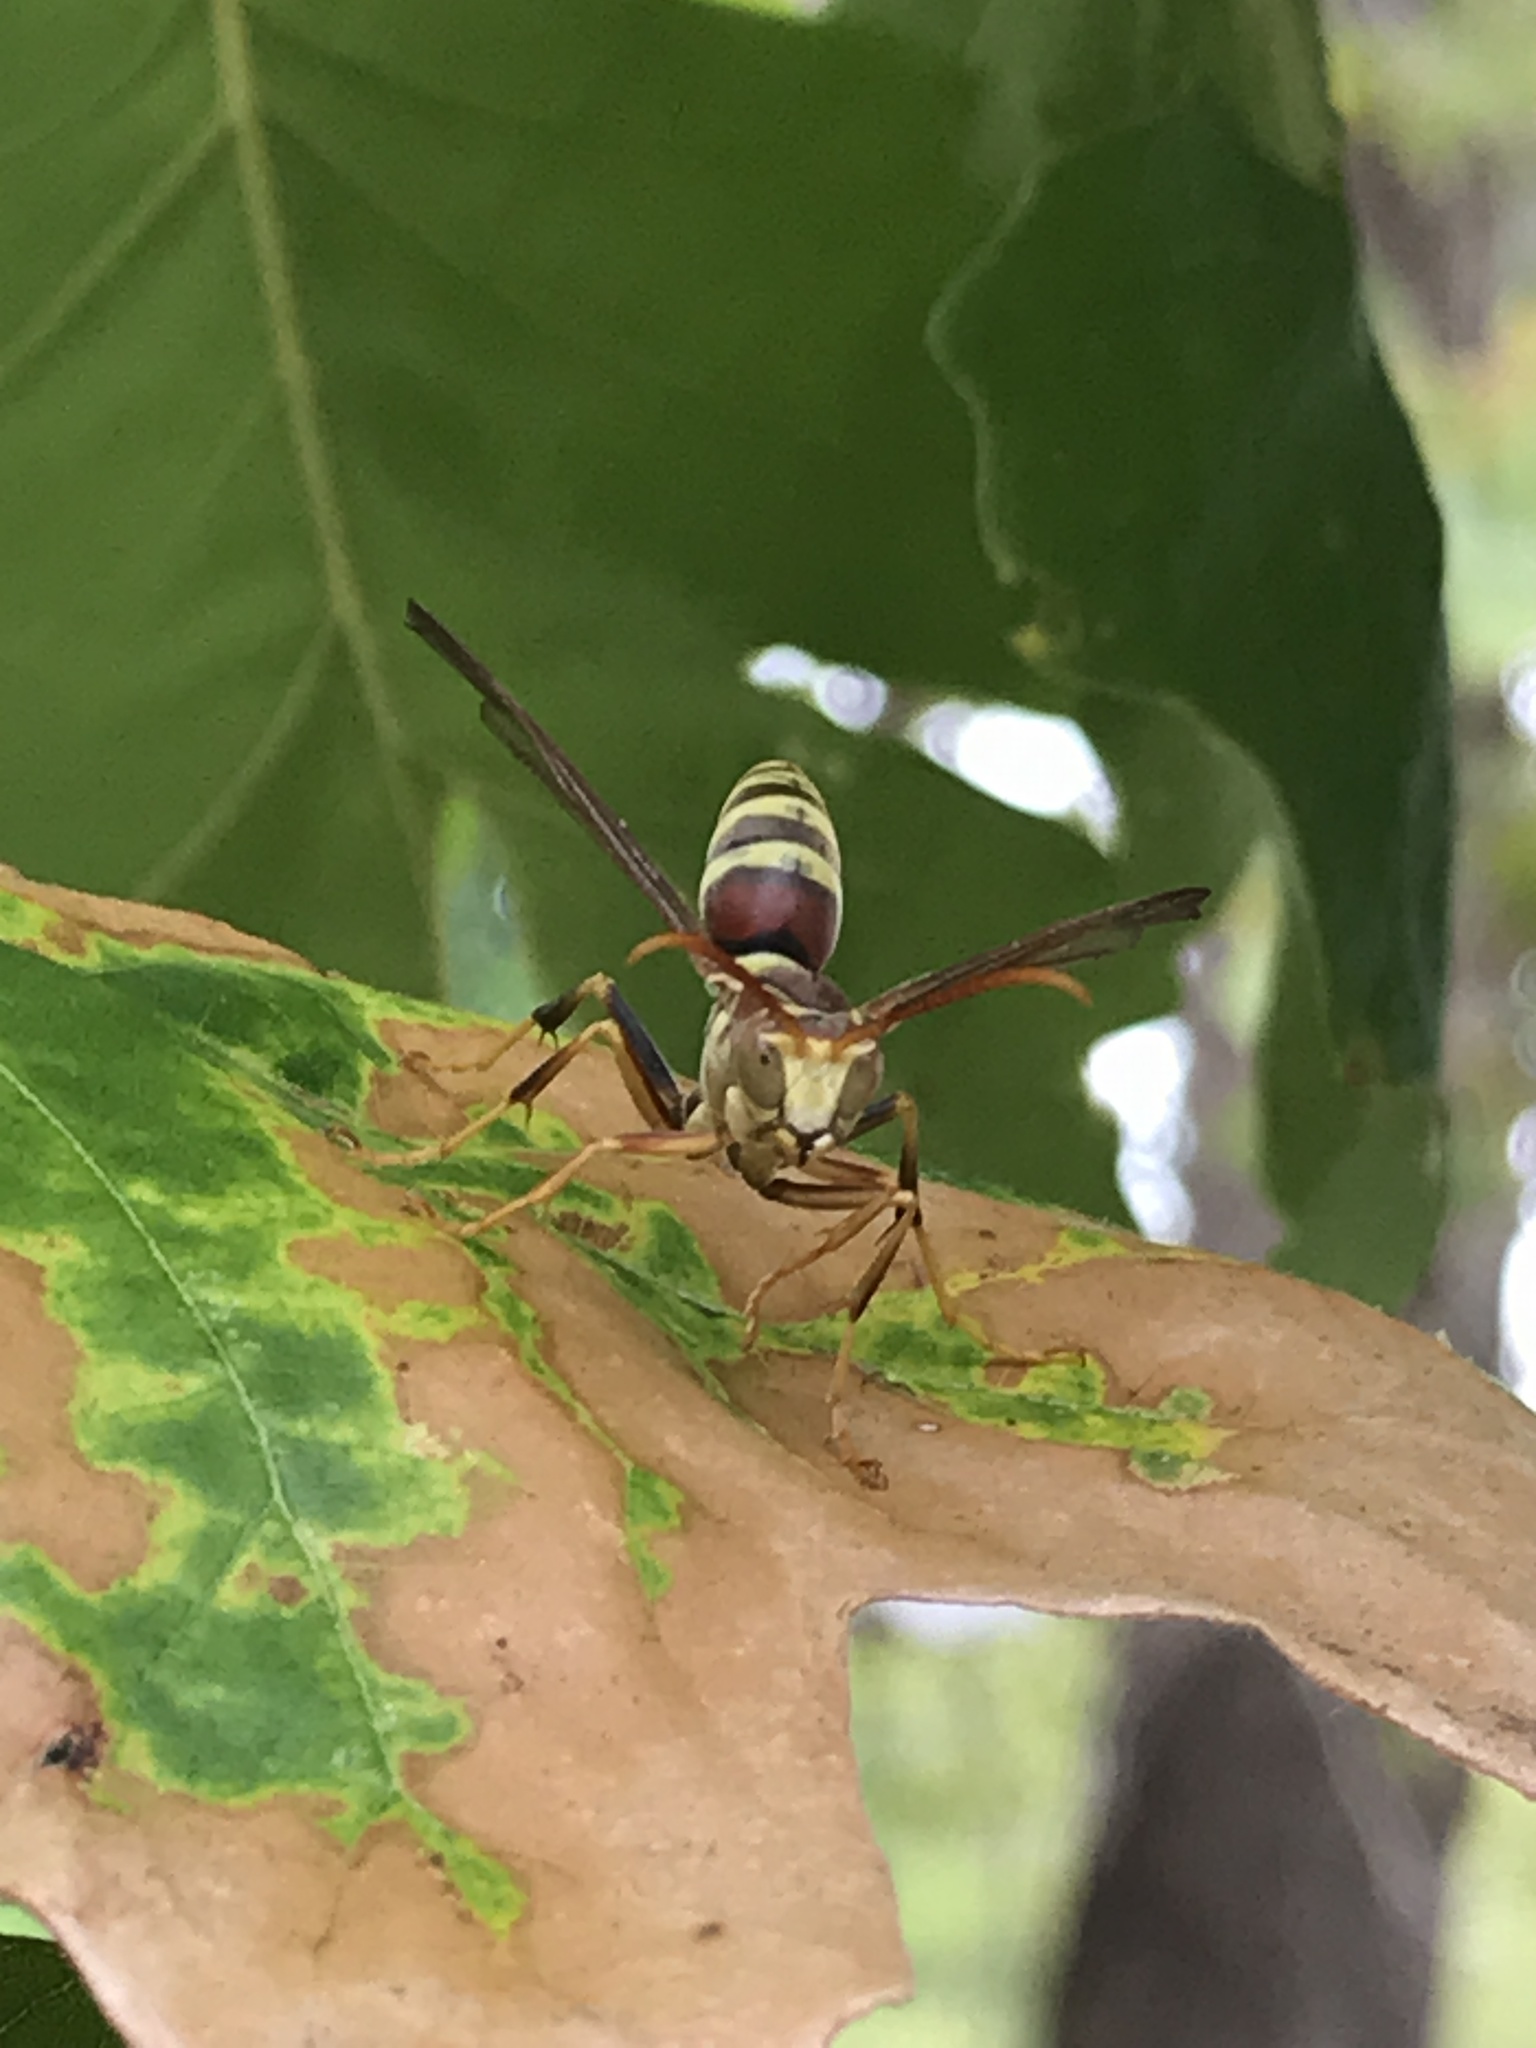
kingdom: Animalia
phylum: Arthropoda
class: Insecta
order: Hymenoptera
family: Eumenidae
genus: Polistes
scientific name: Polistes exclamans
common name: Paper wasp
